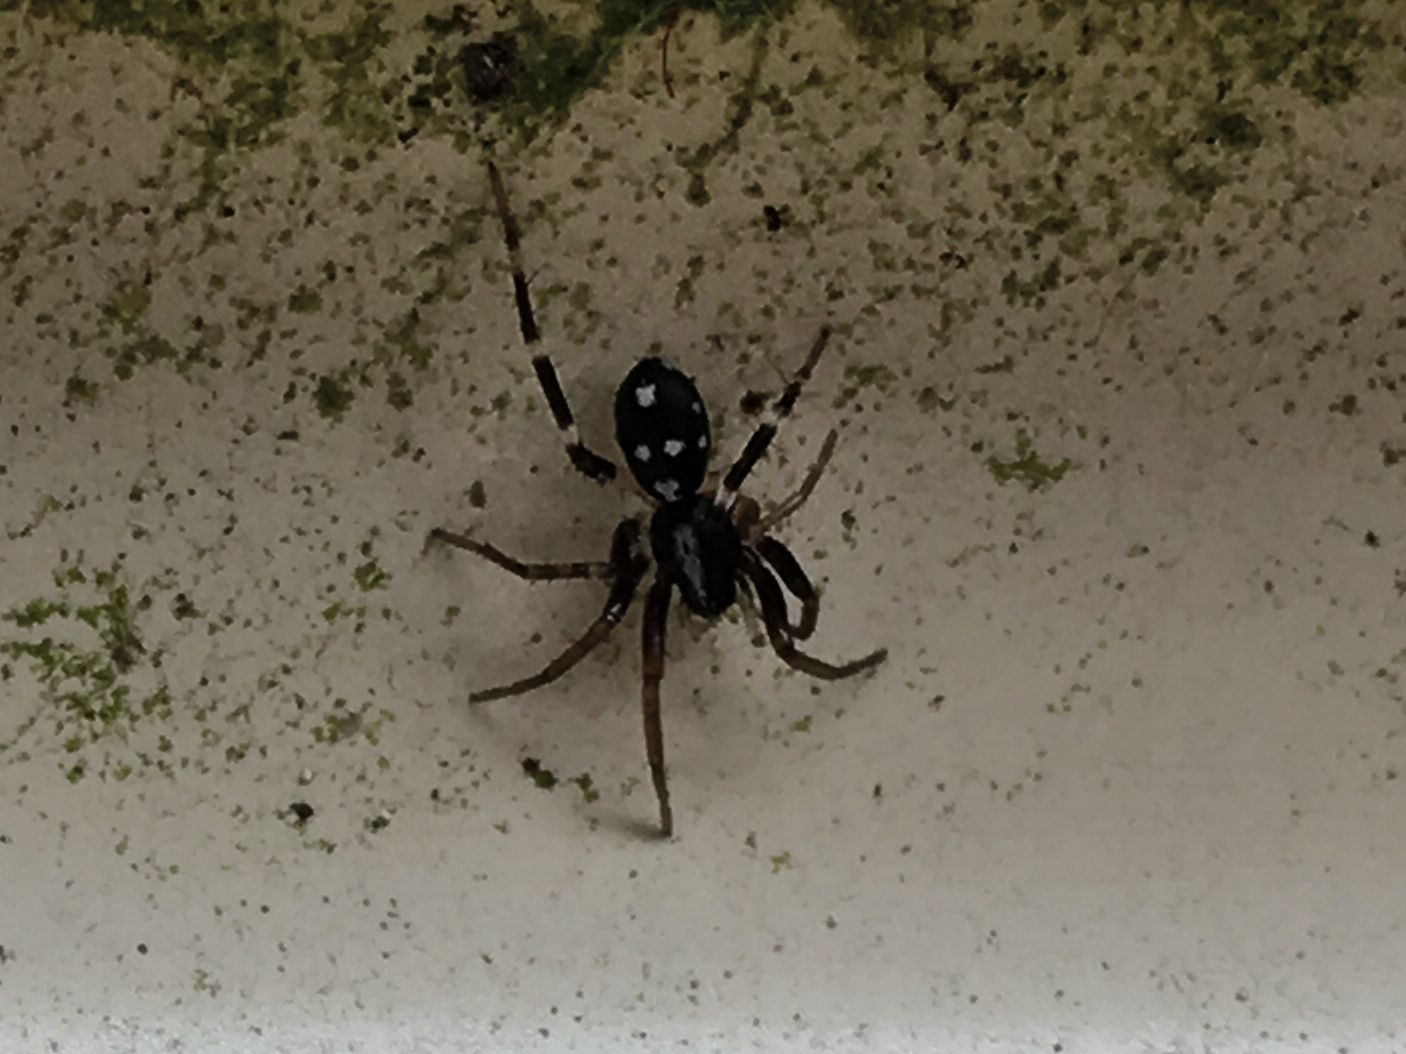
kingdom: Animalia
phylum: Arthropoda
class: Arachnida
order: Araneae
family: Corinnidae
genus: Nyssus
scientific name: Nyssus coloripes
